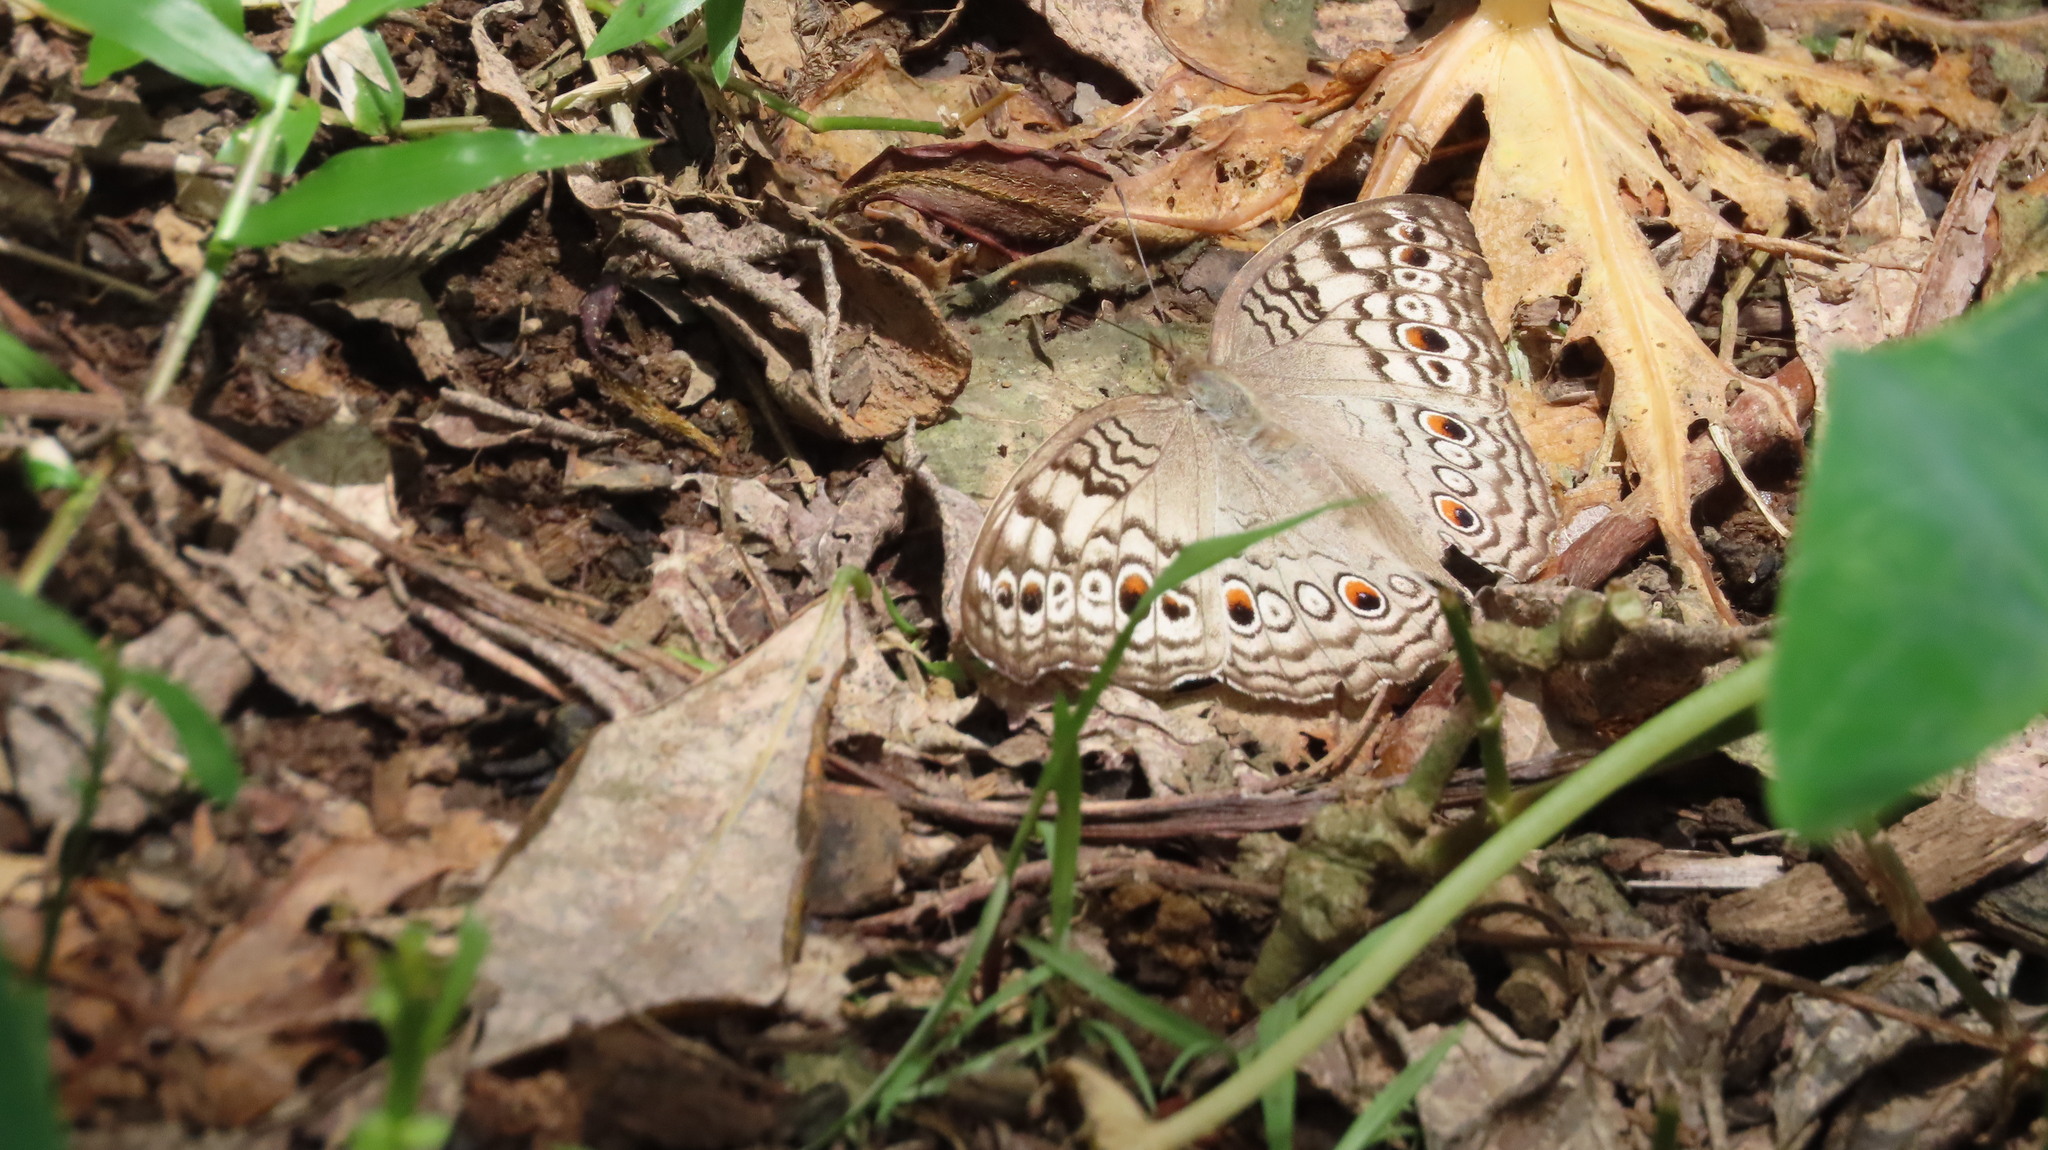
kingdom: Animalia
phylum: Arthropoda
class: Insecta
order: Lepidoptera
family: Nymphalidae
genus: Junonia
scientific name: Junonia atlites
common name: Grey pansy
